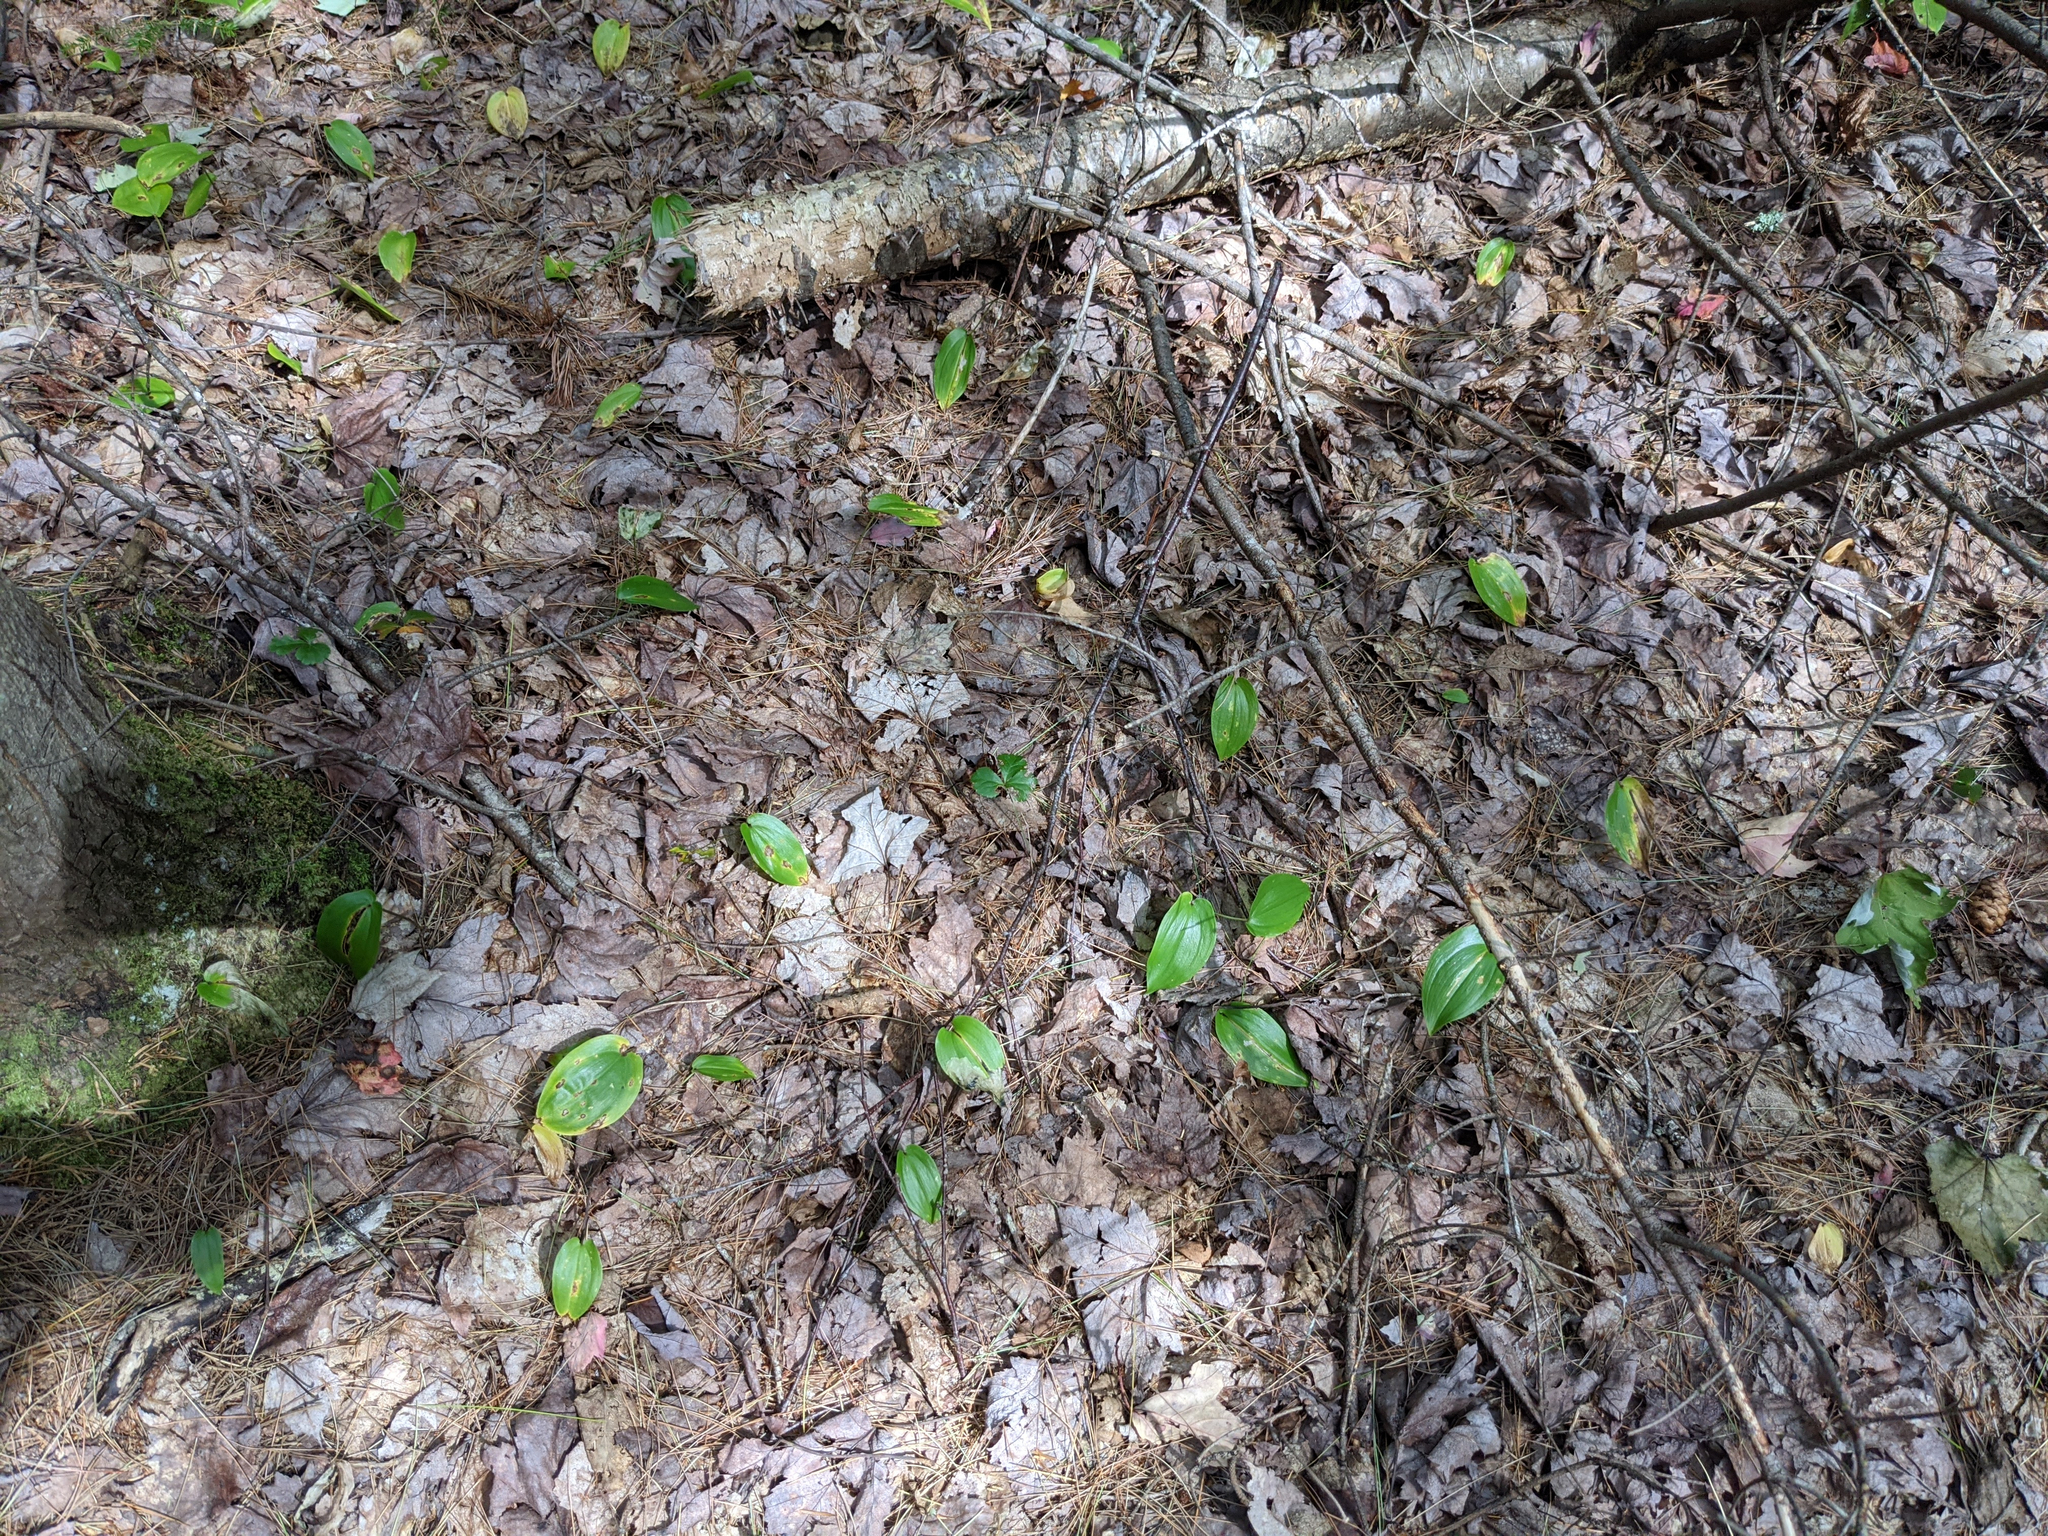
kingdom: Plantae
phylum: Tracheophyta
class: Liliopsida
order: Asparagales
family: Asparagaceae
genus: Maianthemum
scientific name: Maianthemum canadense
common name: False lily-of-the-valley
